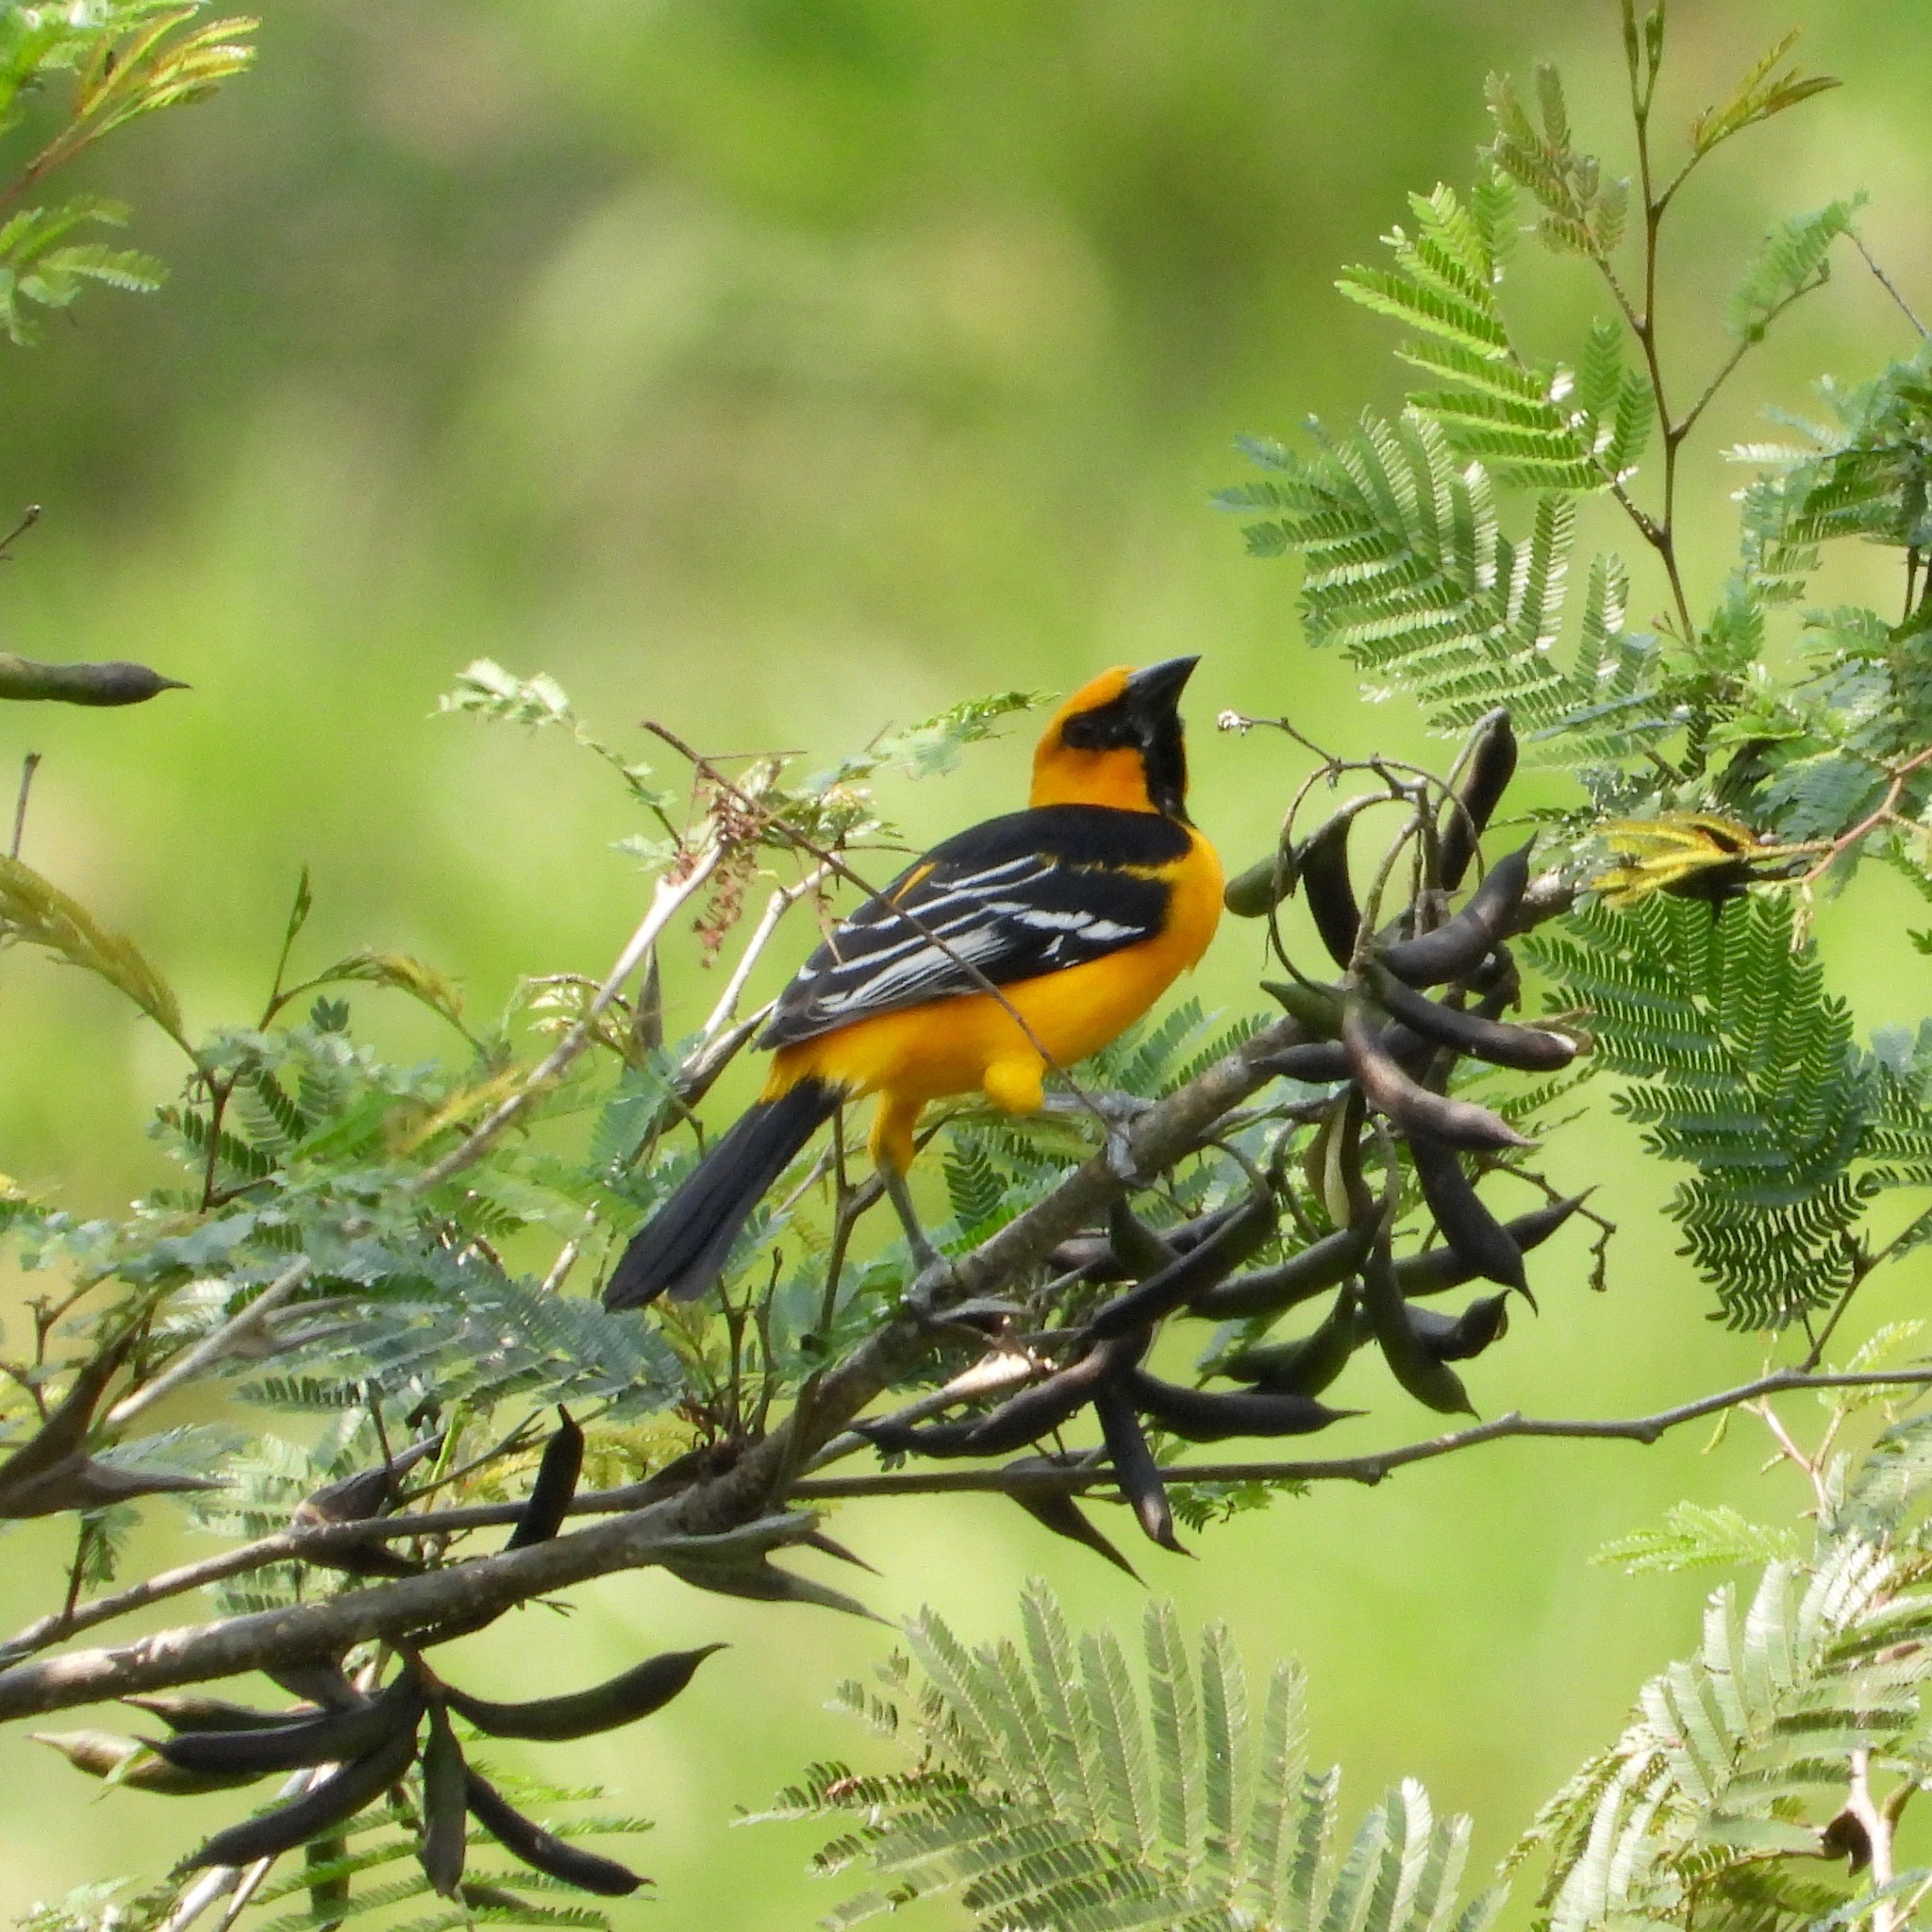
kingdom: Animalia
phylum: Chordata
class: Aves
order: Passeriformes
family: Icteridae
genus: Icterus
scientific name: Icterus gularis
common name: Altamira oriole
